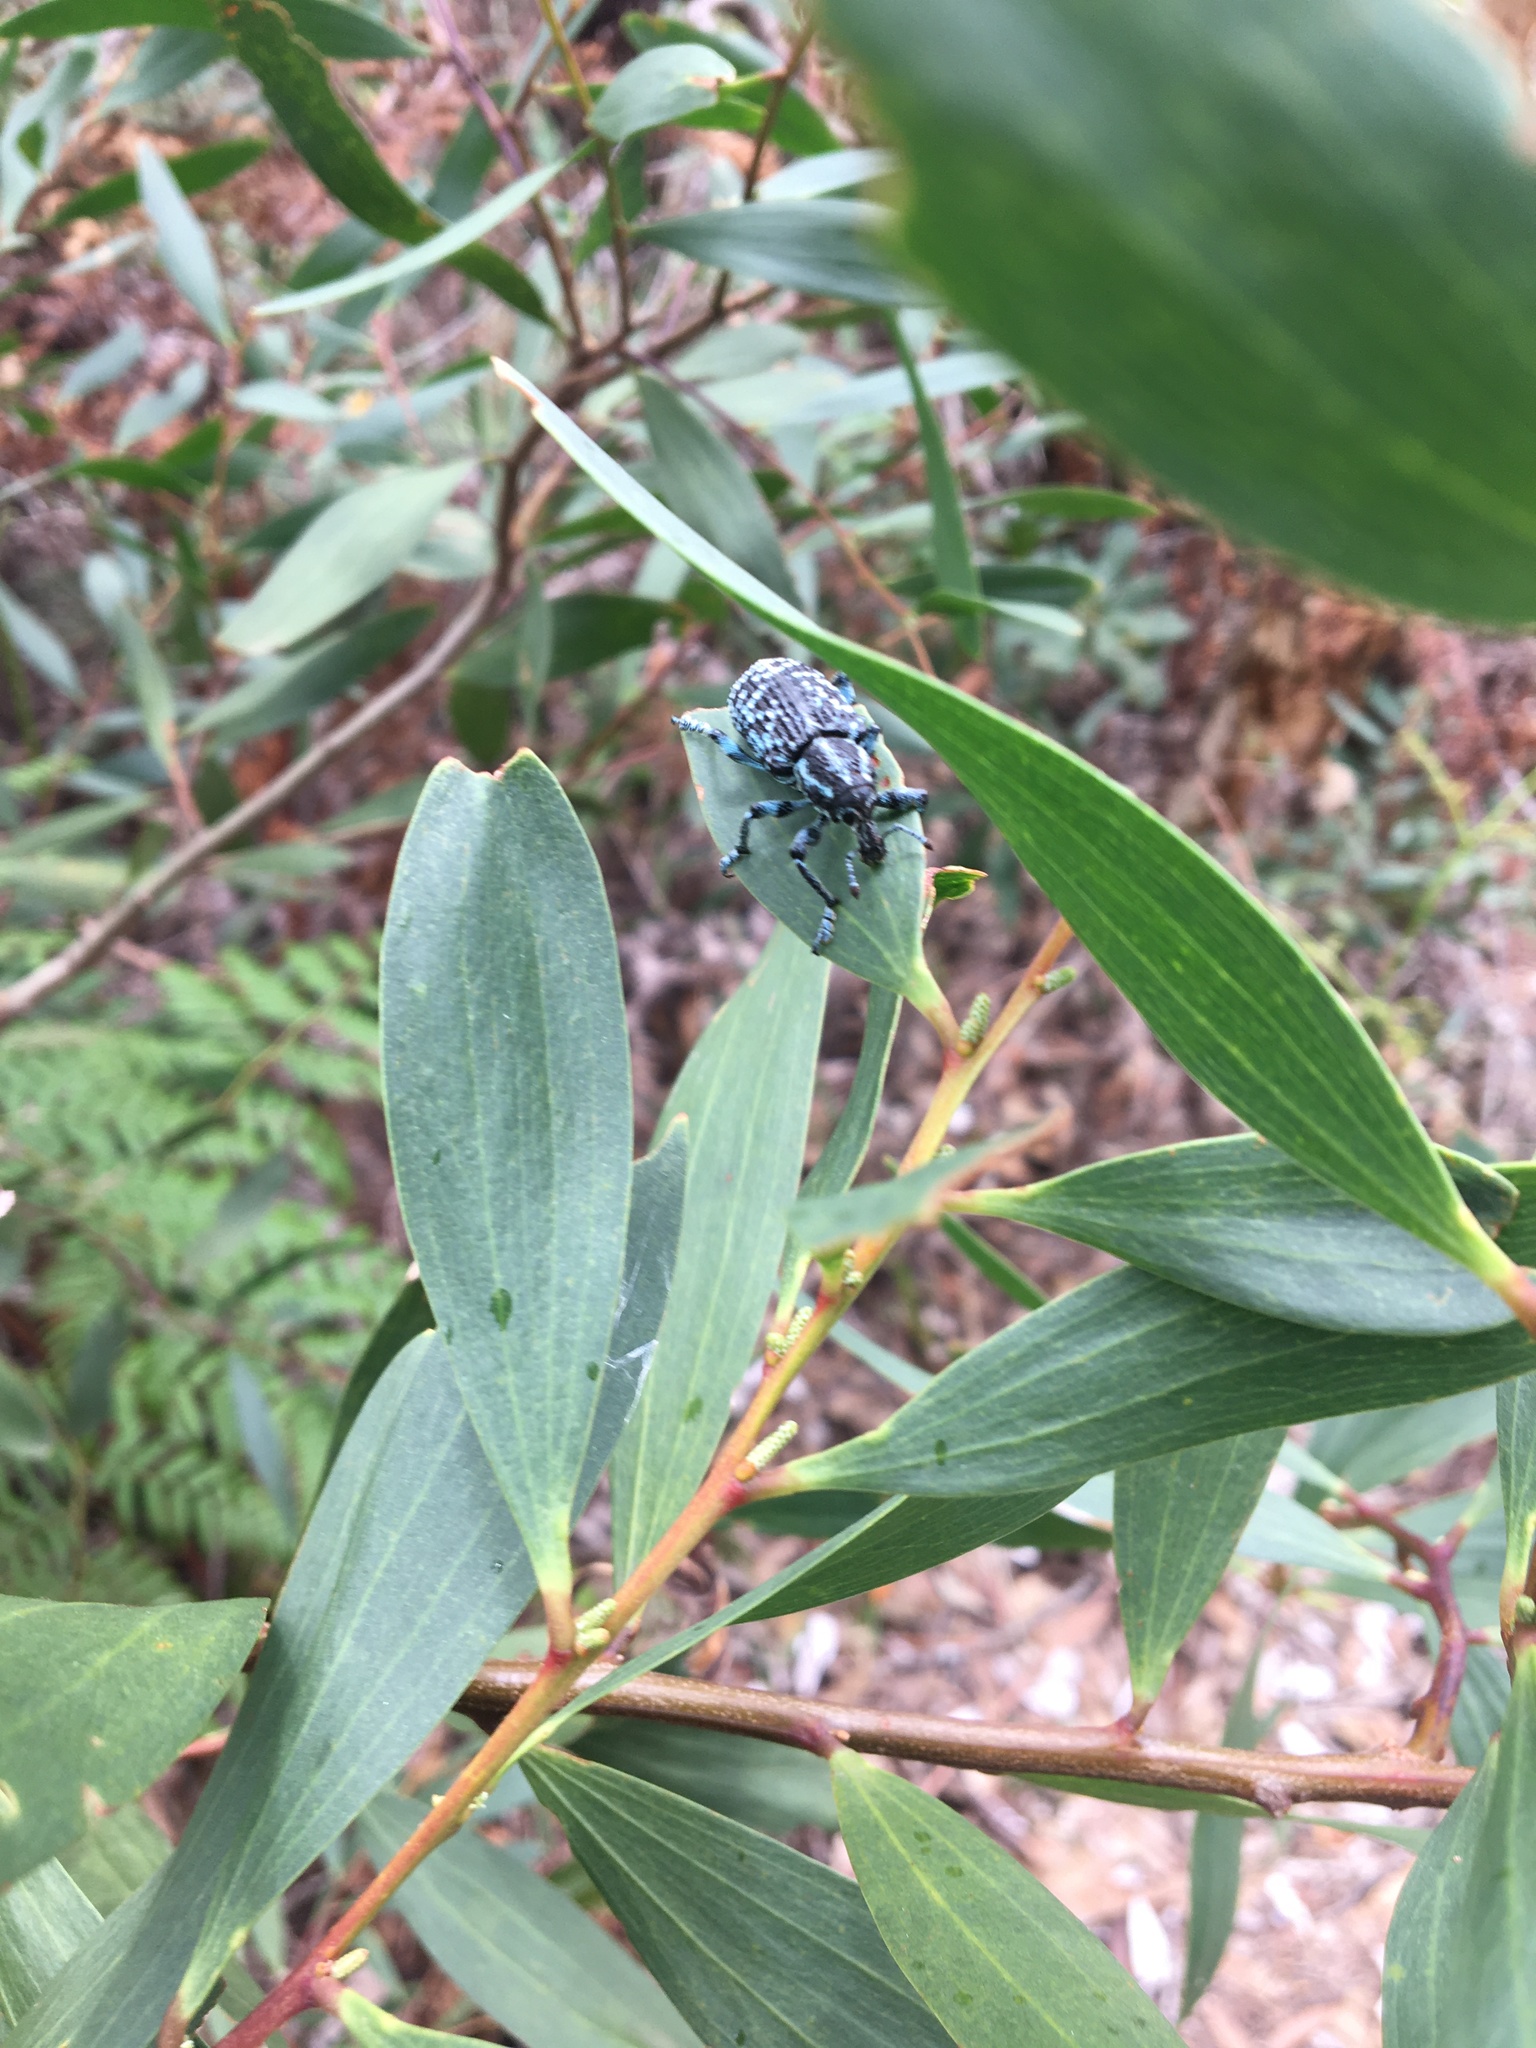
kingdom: Animalia
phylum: Arthropoda
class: Insecta
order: Coleoptera
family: Curculionidae
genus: Chrysolopus
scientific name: Chrysolopus spectabilis
